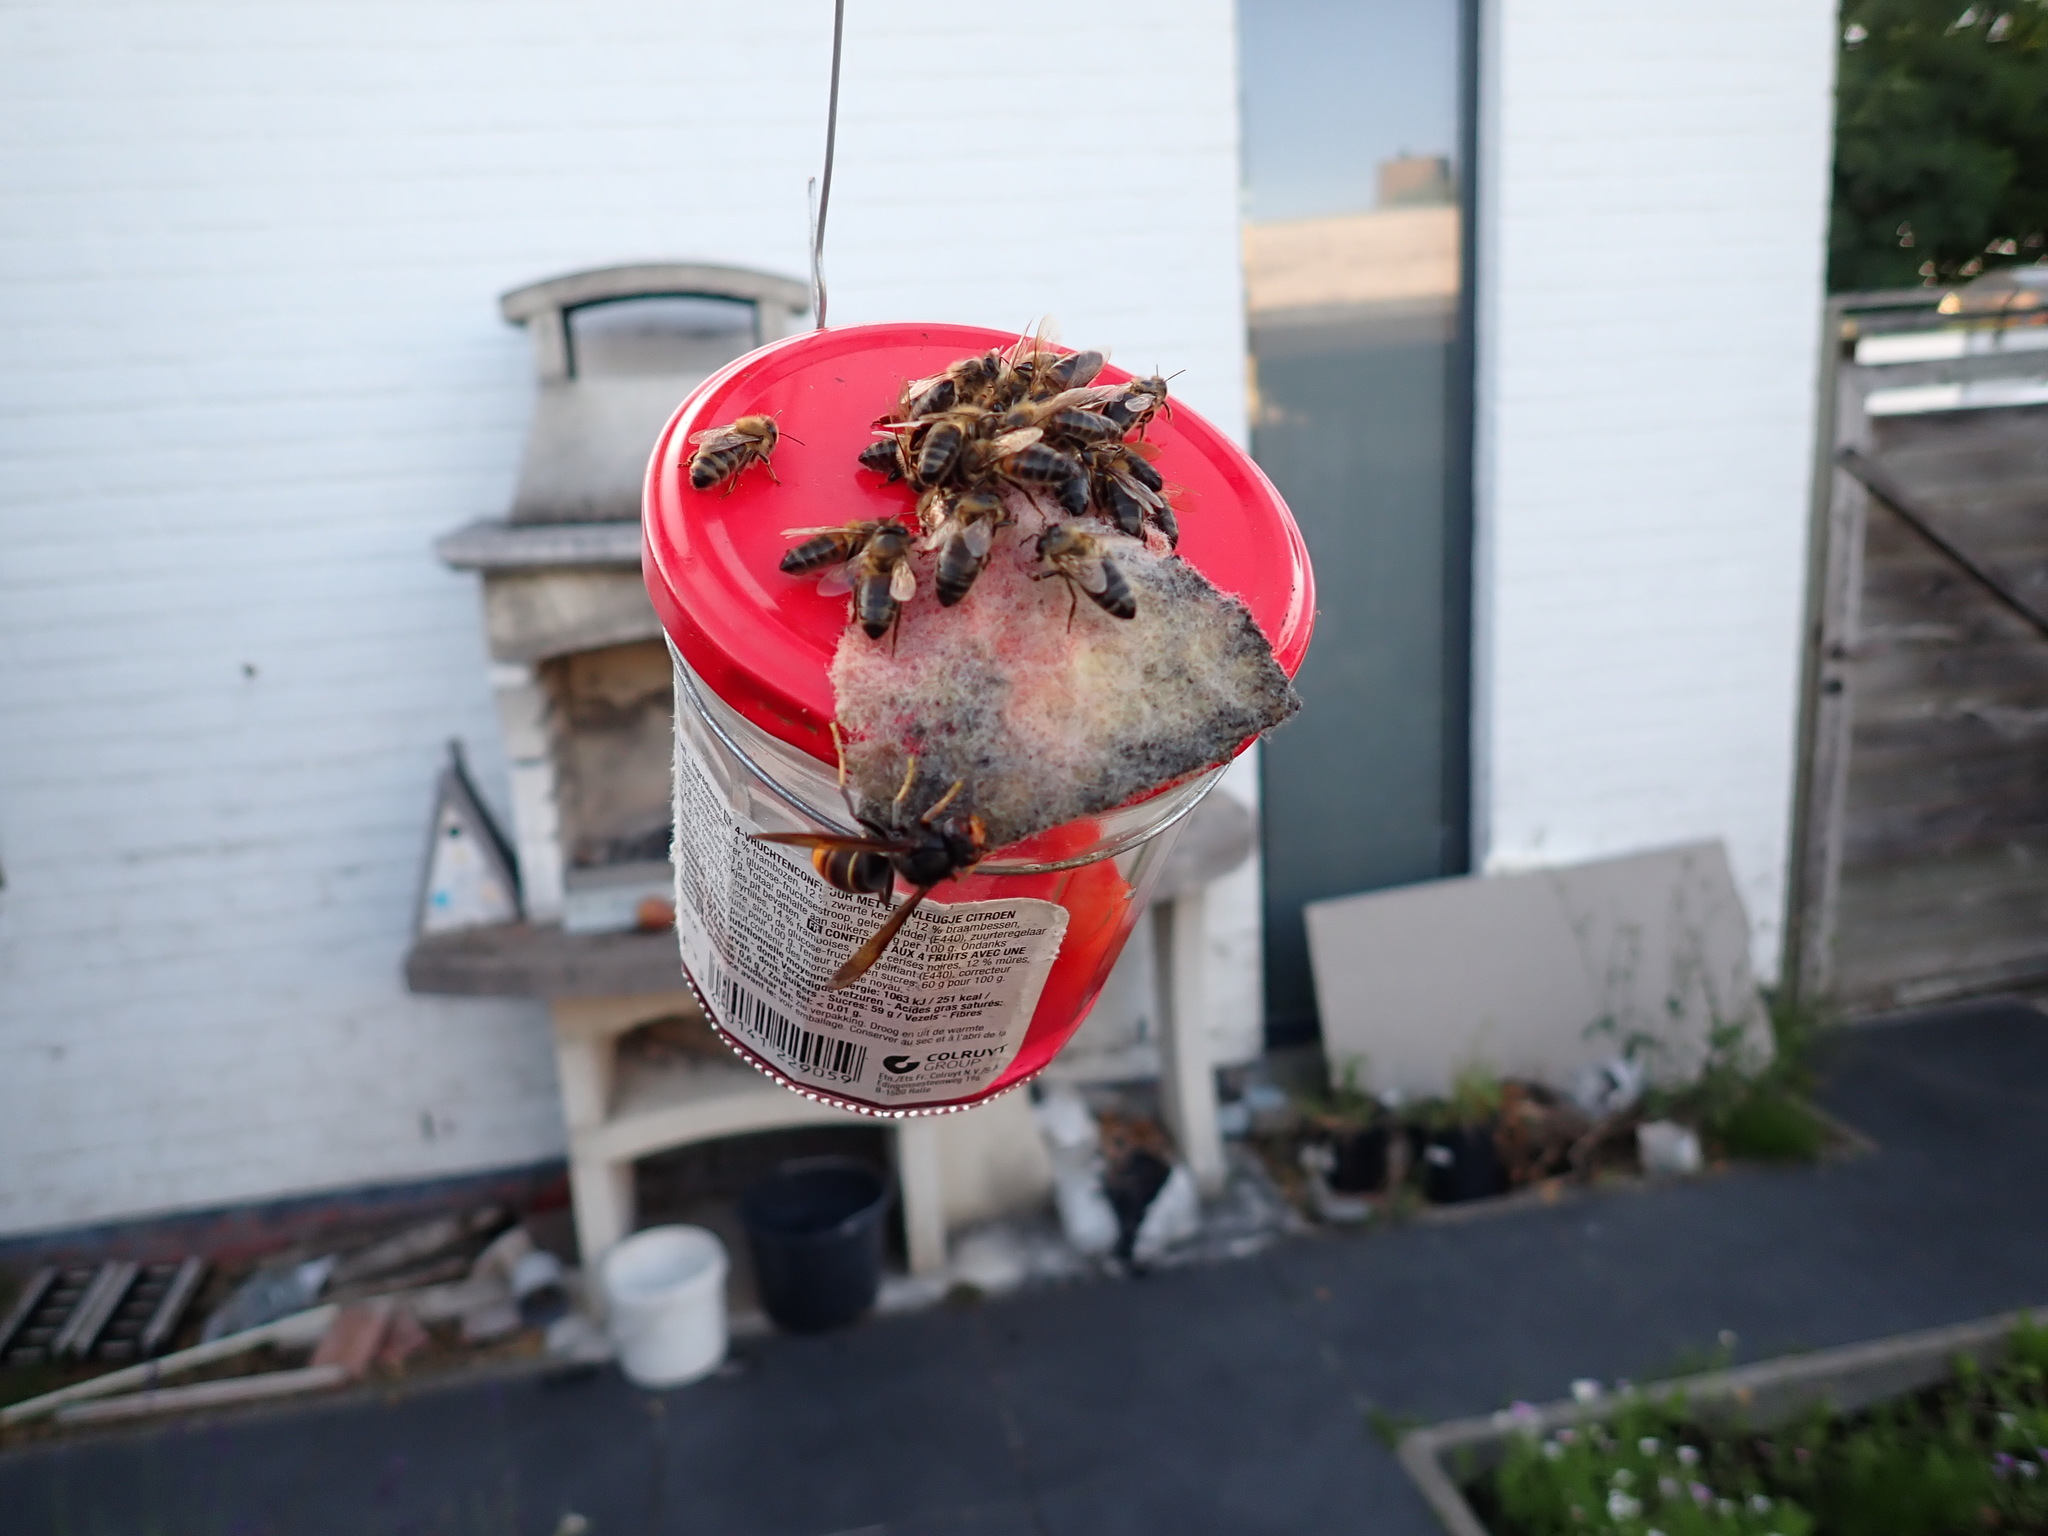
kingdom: Animalia
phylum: Arthropoda
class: Insecta
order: Hymenoptera
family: Vespidae
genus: Vespa
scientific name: Vespa velutina
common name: Asian hornet
